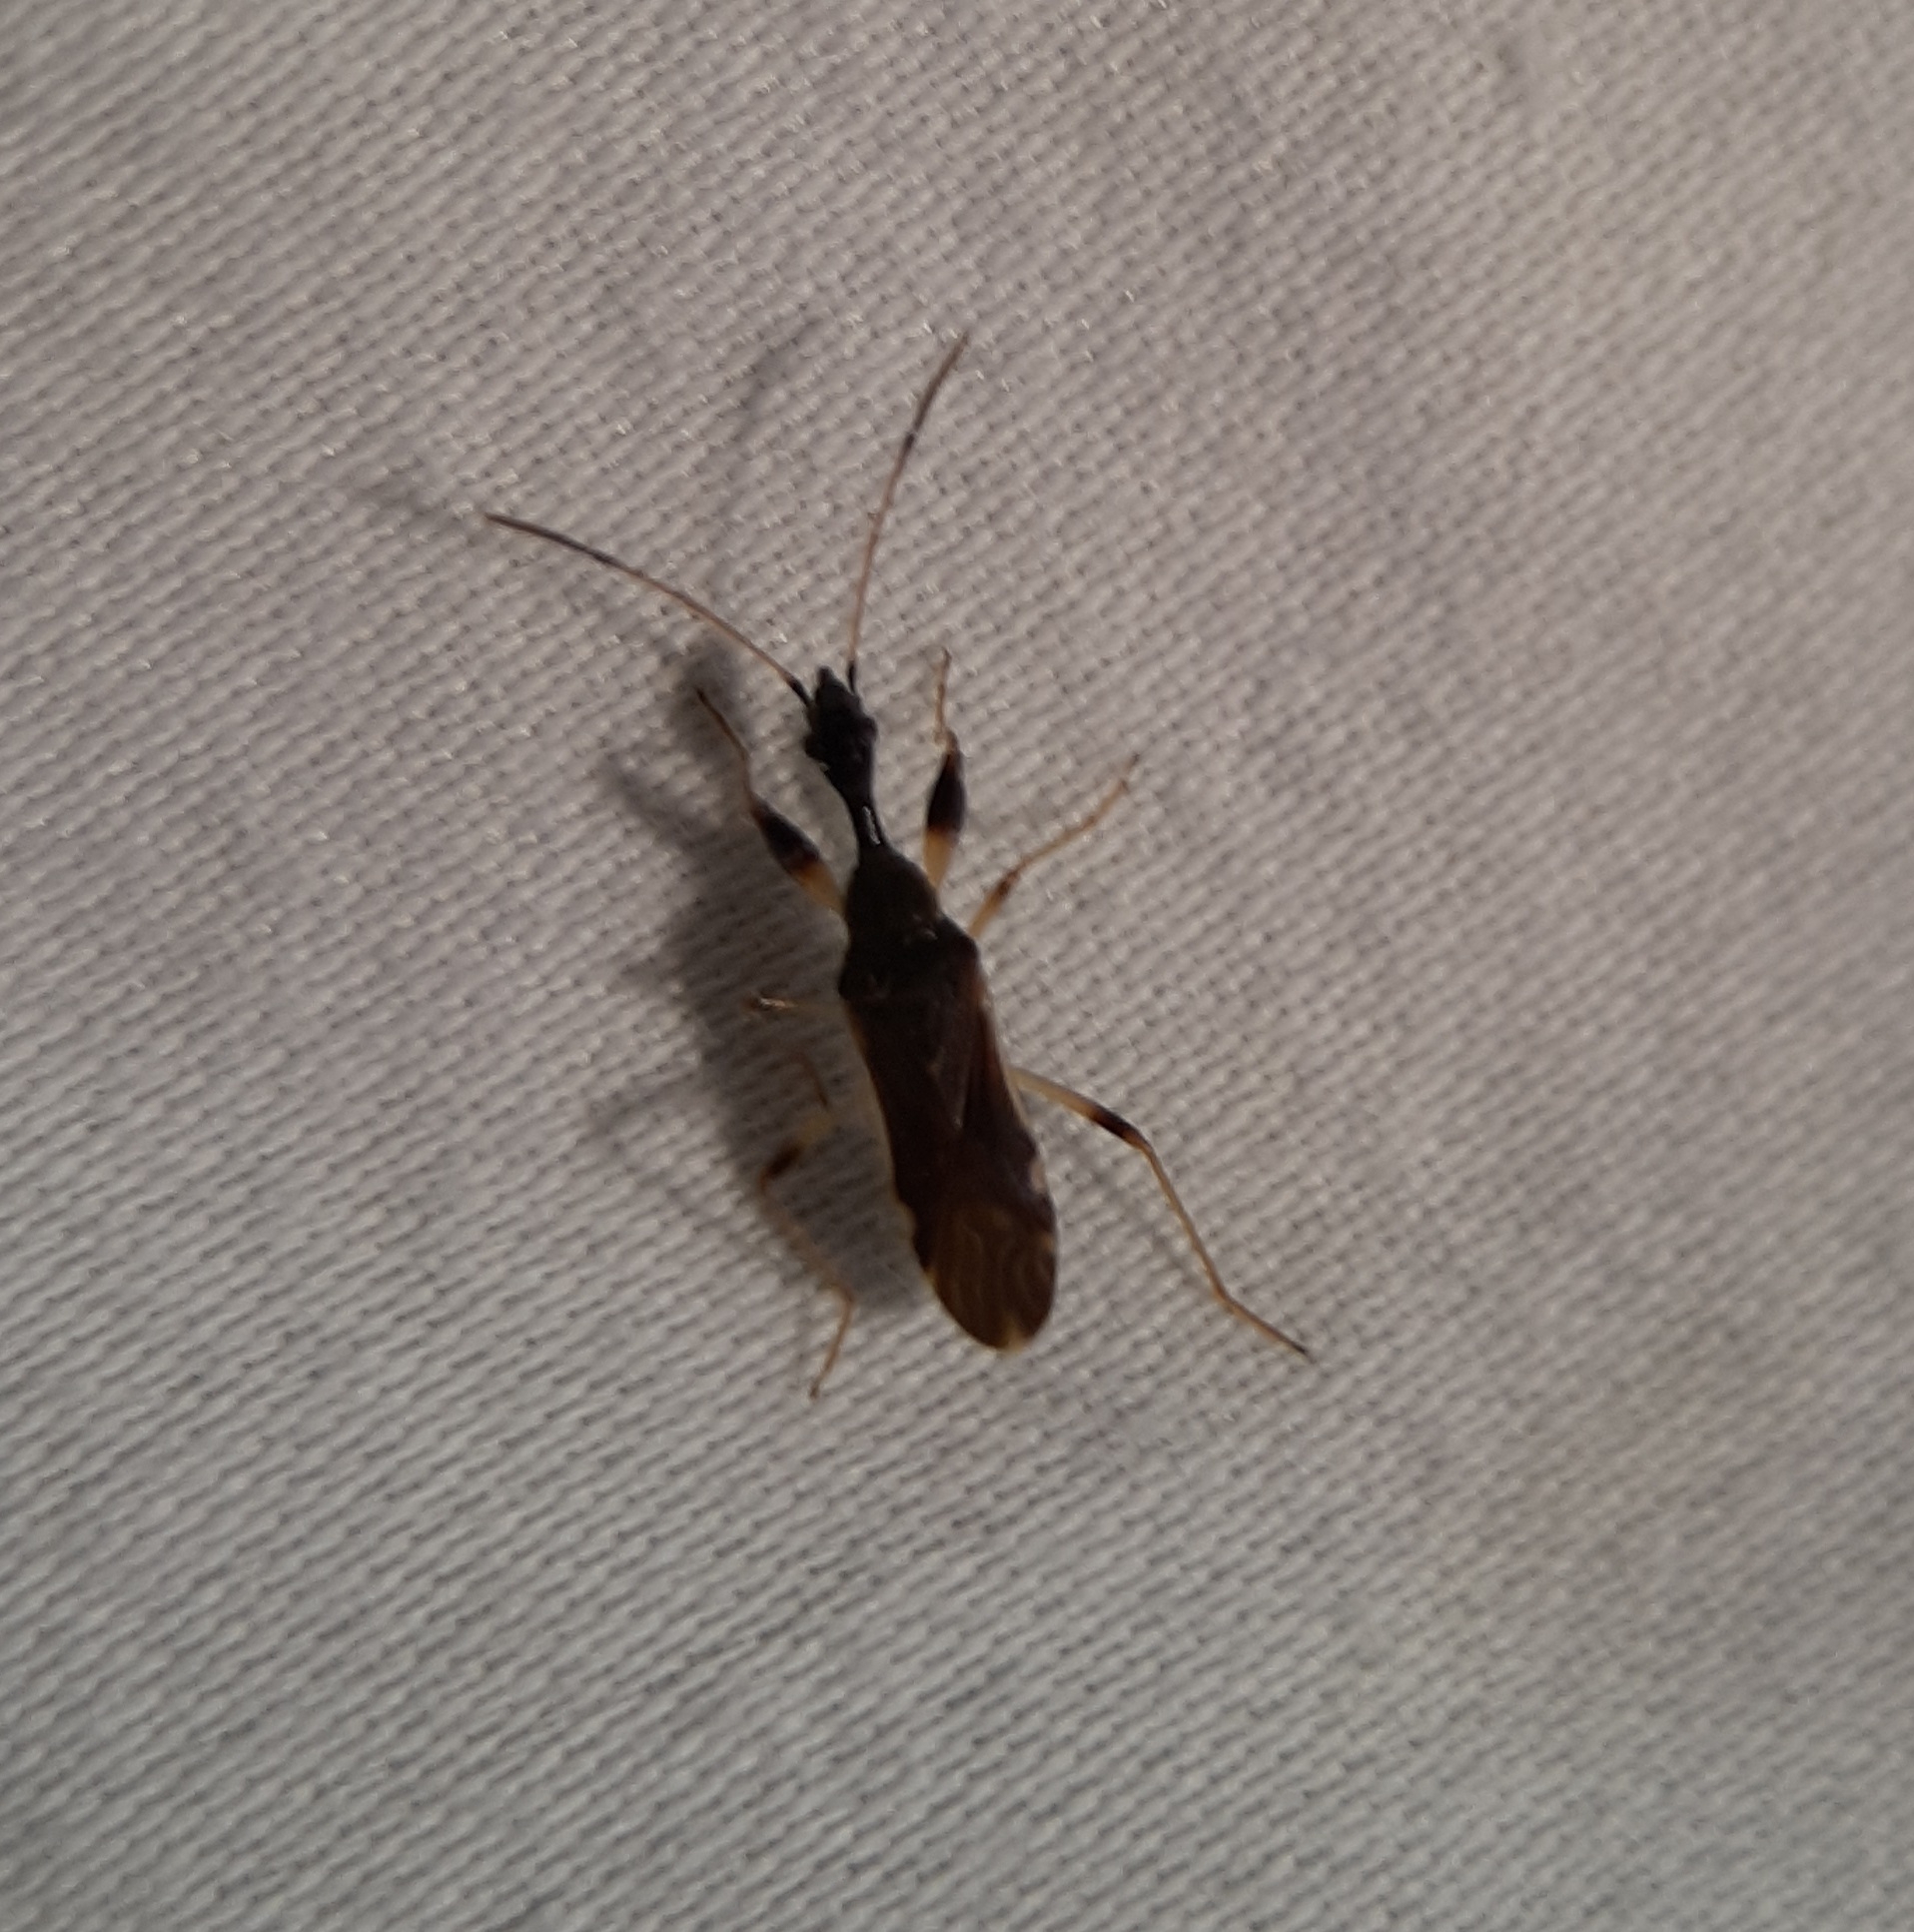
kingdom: Animalia
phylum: Arthropoda
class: Insecta
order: Hemiptera
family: Rhyparochromidae
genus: Myodocha
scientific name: Myodocha serripes
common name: Long-necked seed bug
